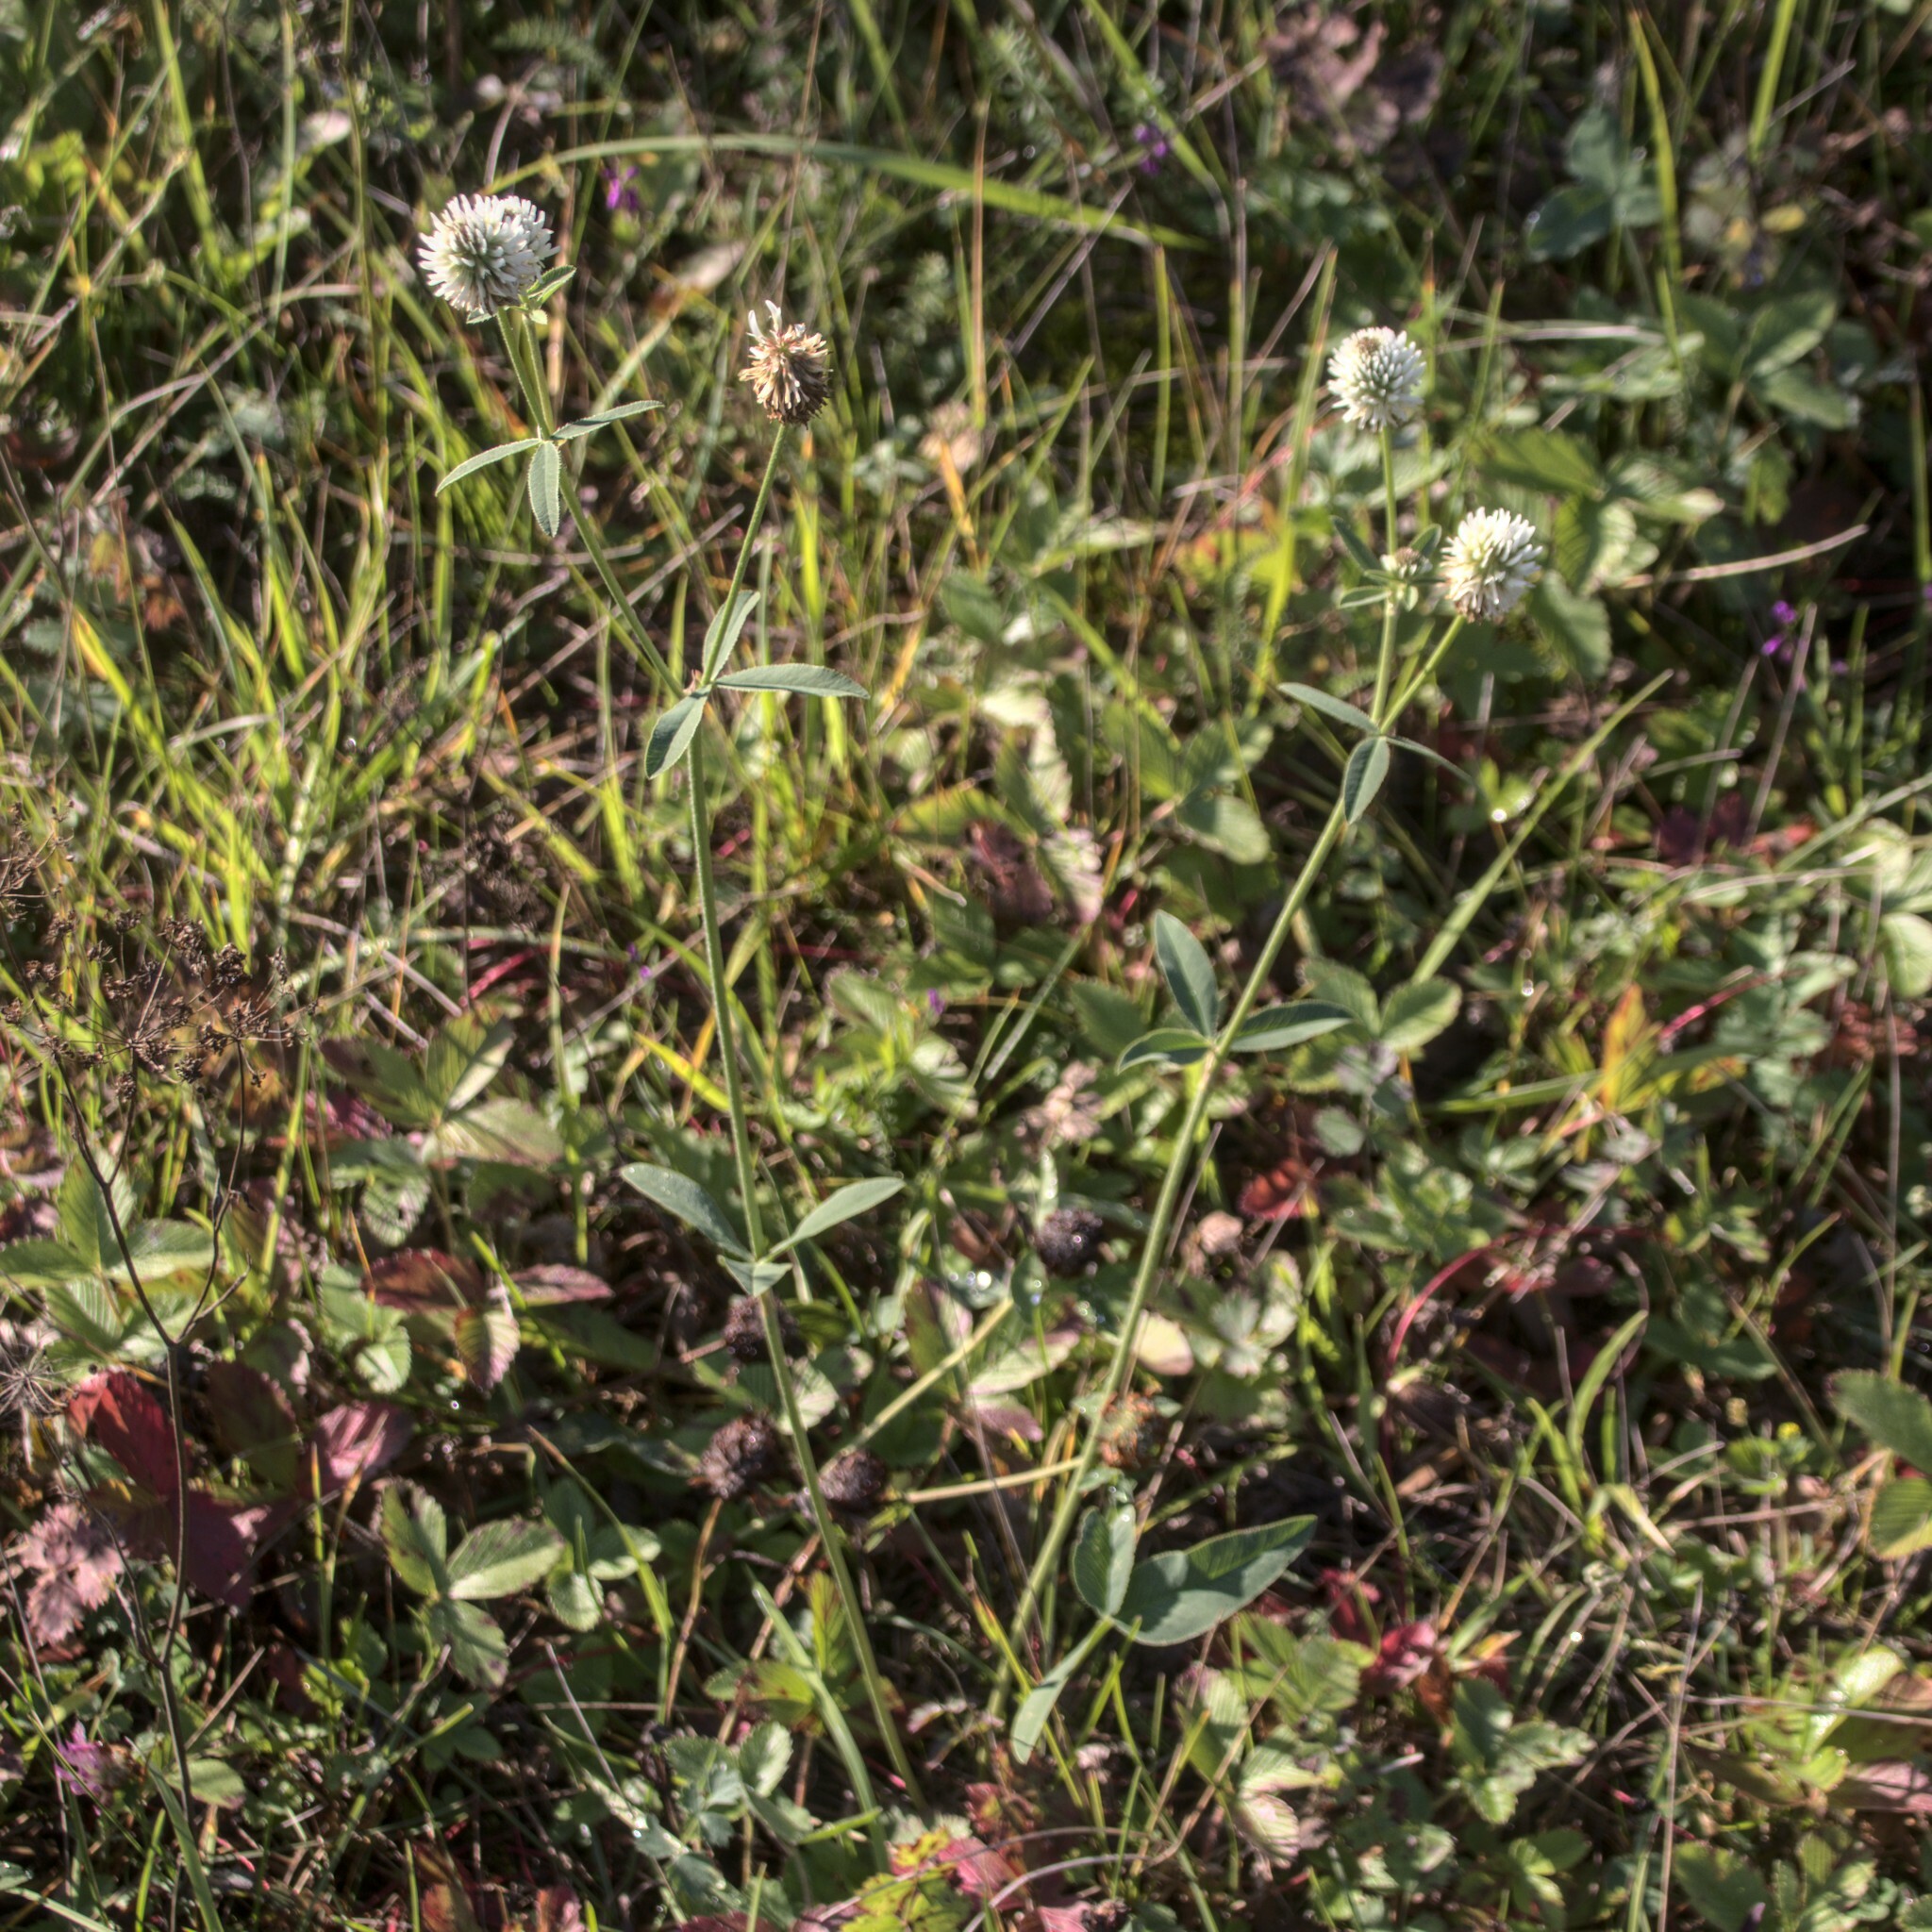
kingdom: Plantae
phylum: Tracheophyta
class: Magnoliopsida
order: Fabales
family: Fabaceae
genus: Trifolium
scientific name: Trifolium montanum
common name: Mountain clover
